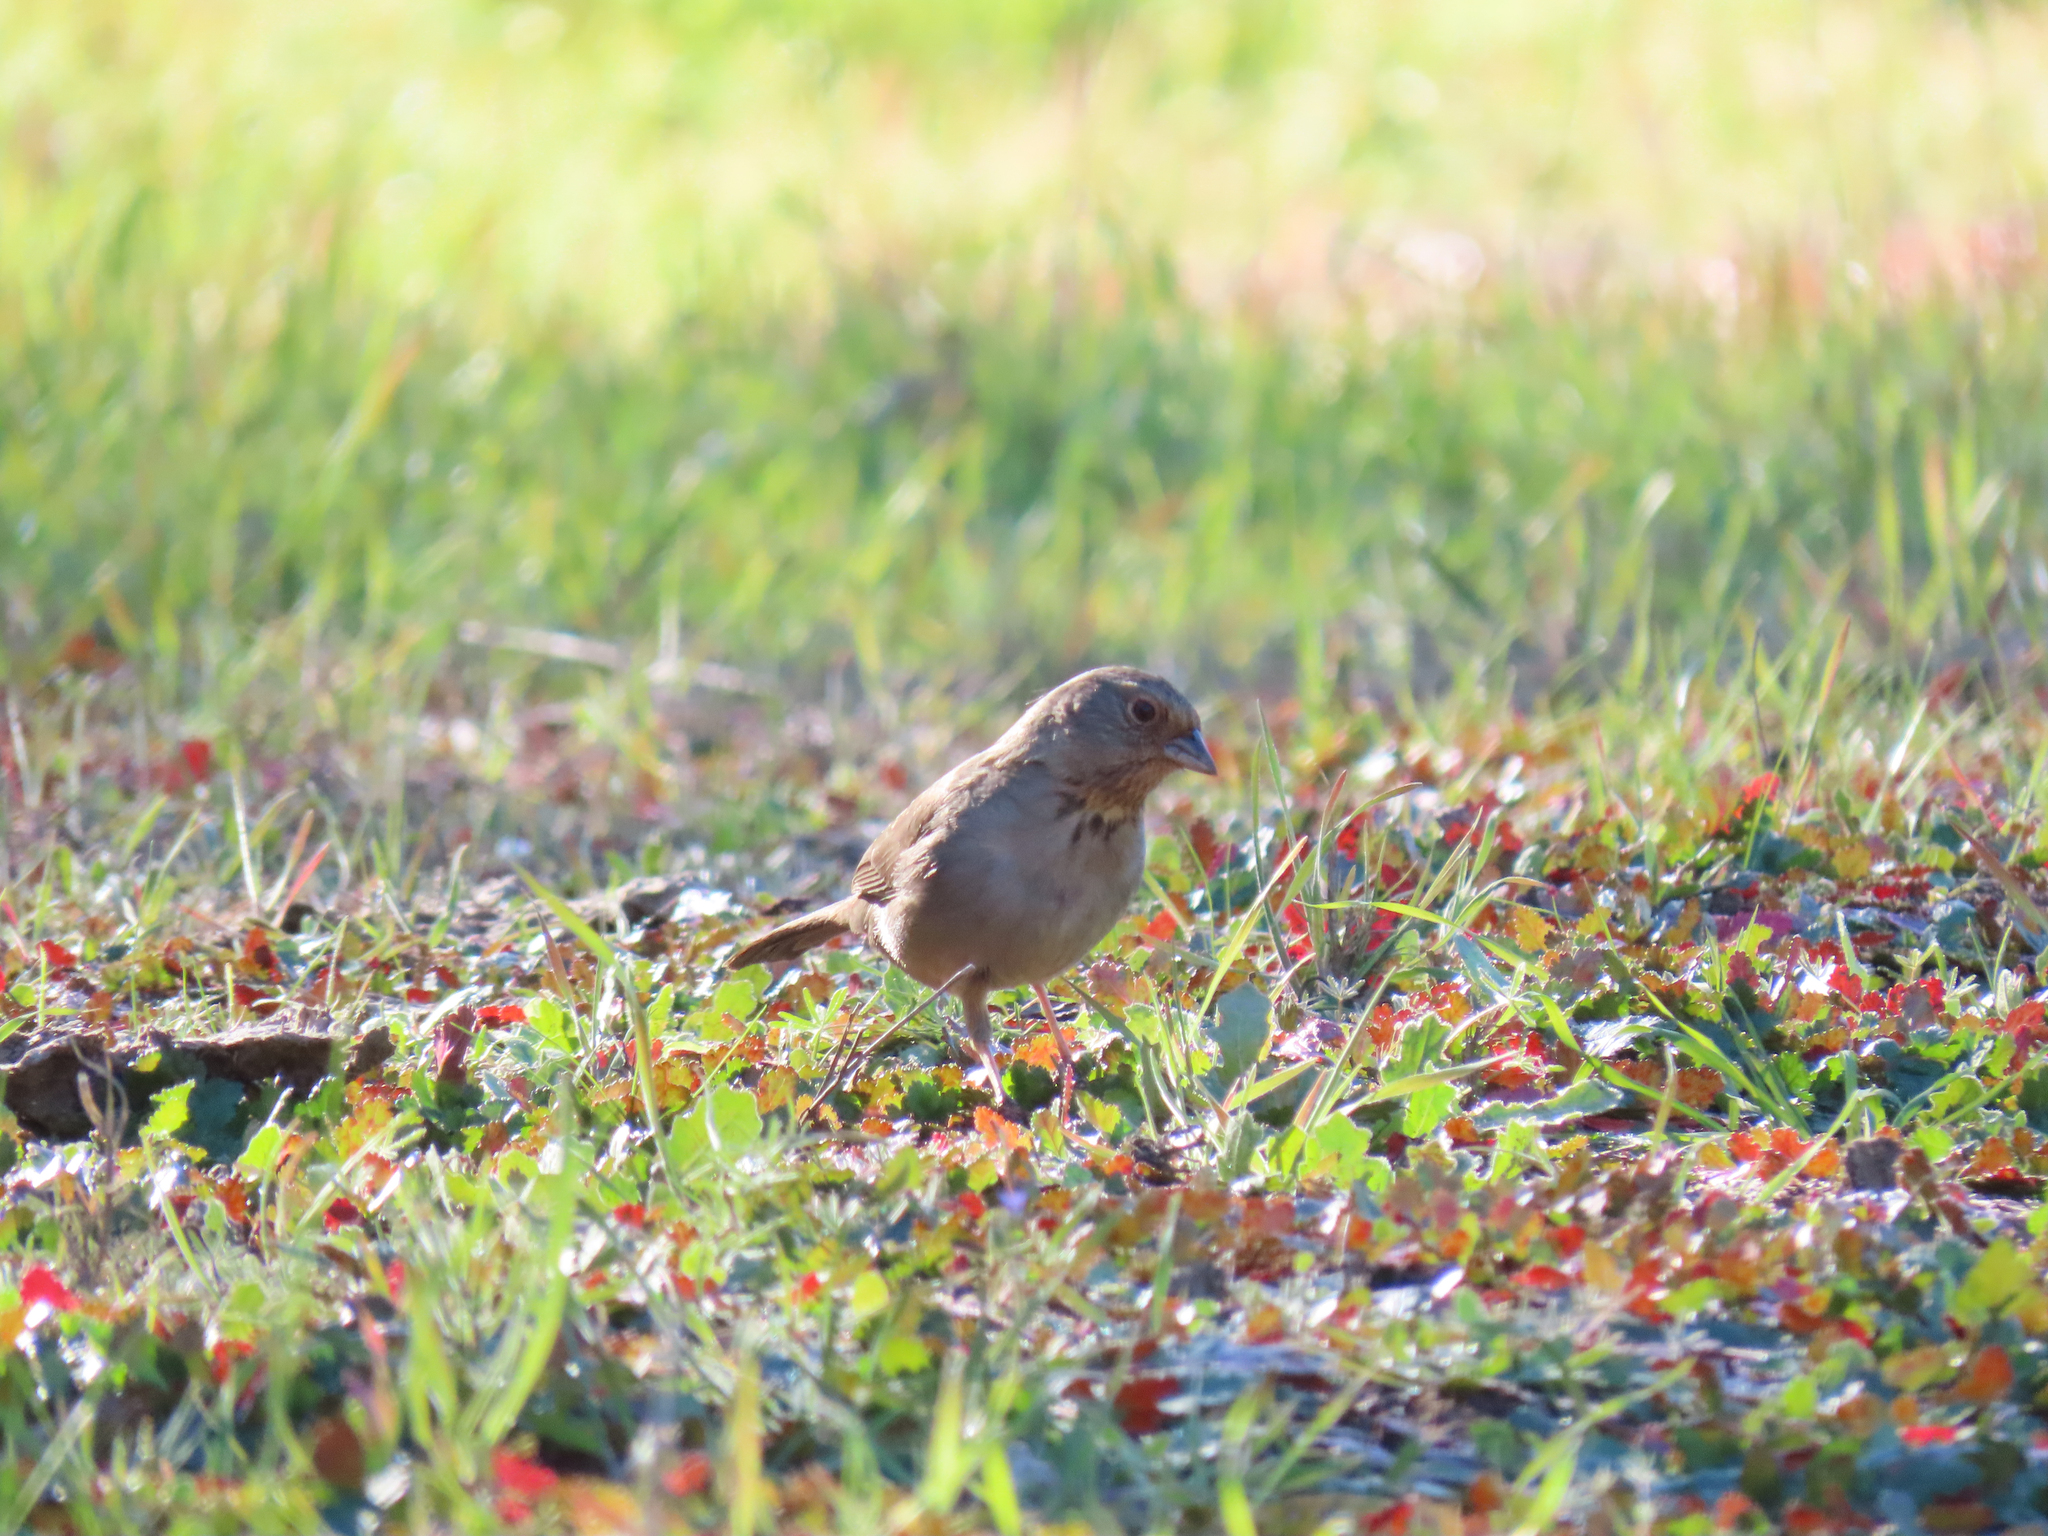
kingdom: Animalia
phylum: Chordata
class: Aves
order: Passeriformes
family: Passerellidae
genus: Melozone
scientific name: Melozone crissalis
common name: California towhee
